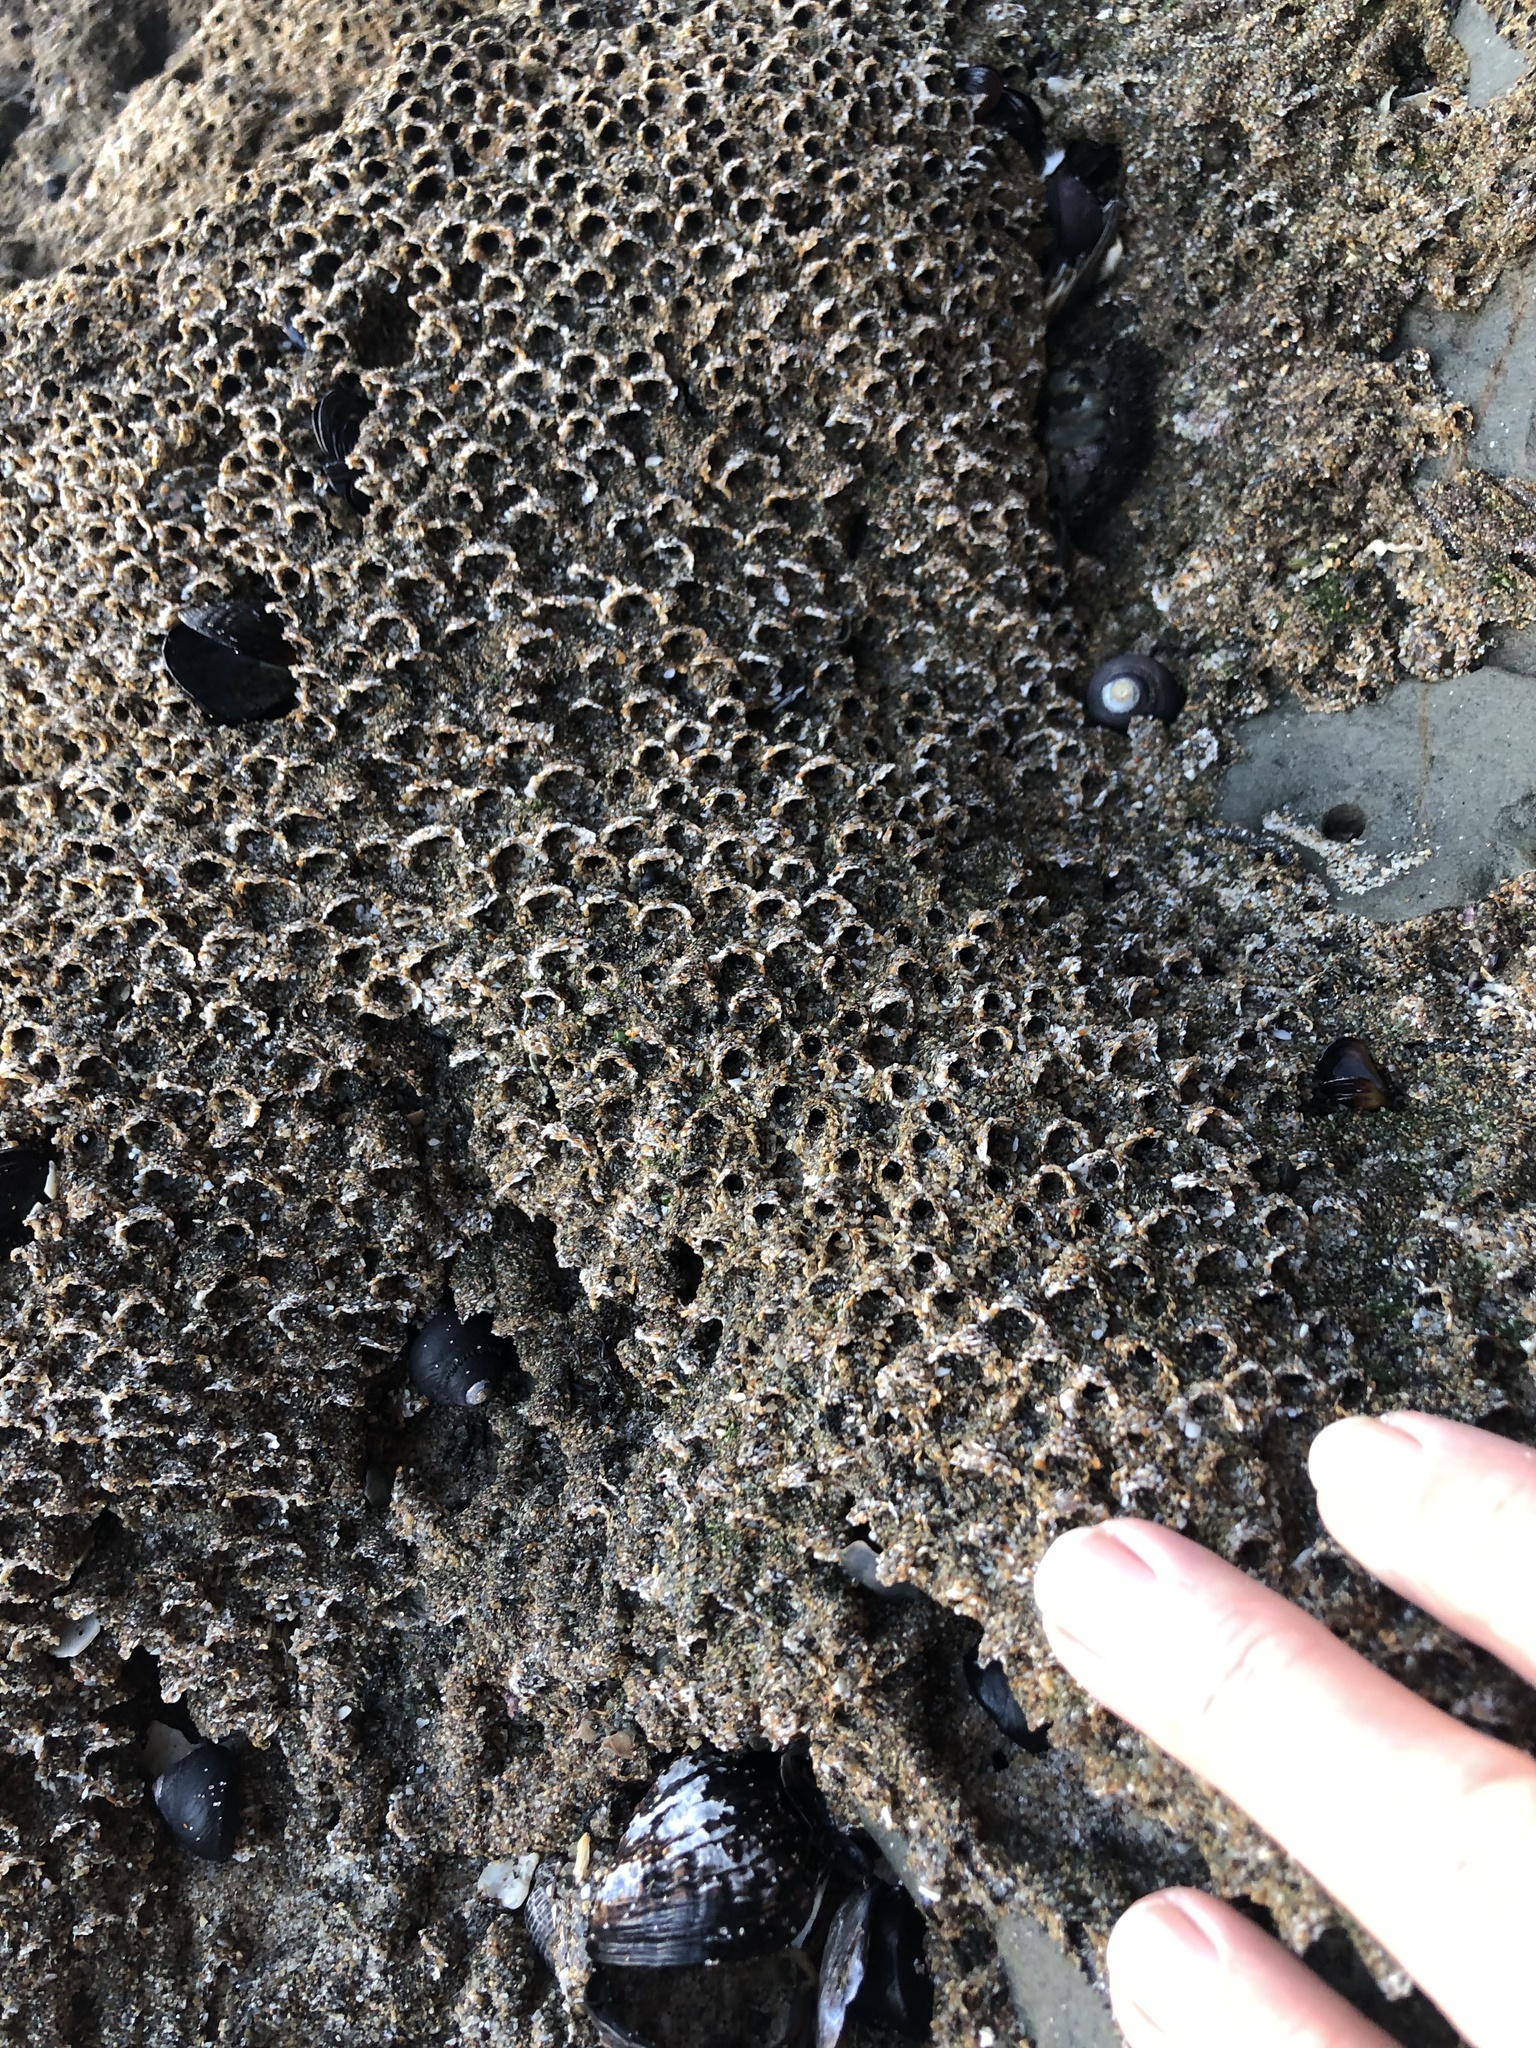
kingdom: Animalia
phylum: Annelida
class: Polychaeta
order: Sabellida
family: Sabellariidae
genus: Phragmatopoma
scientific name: Phragmatopoma californica
